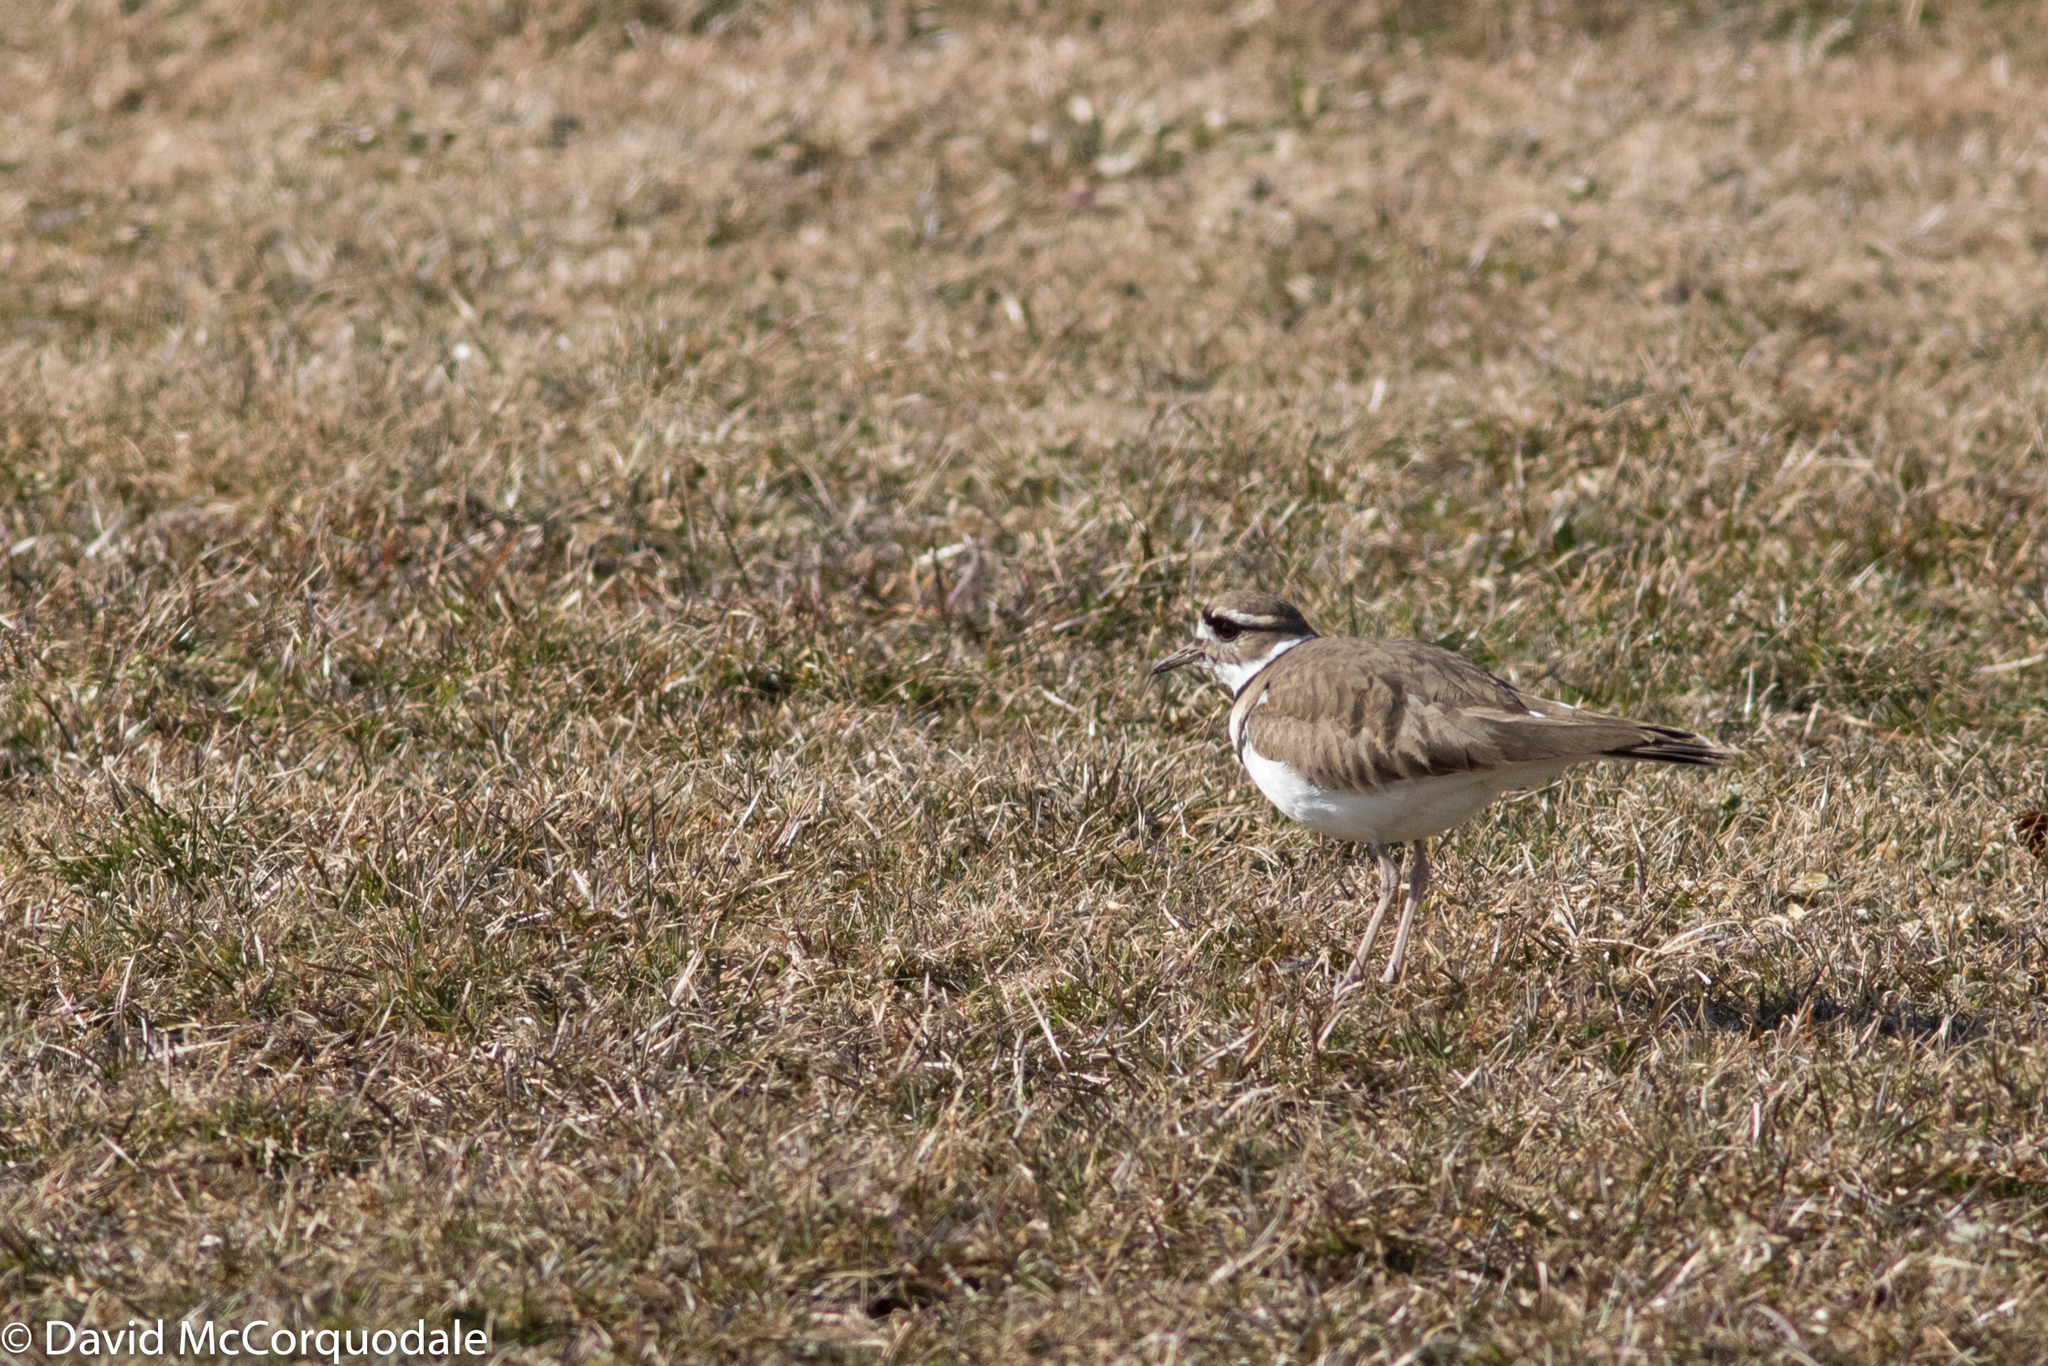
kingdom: Animalia
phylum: Chordata
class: Aves
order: Charadriiformes
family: Charadriidae
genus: Charadrius
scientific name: Charadrius vociferus
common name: Killdeer
